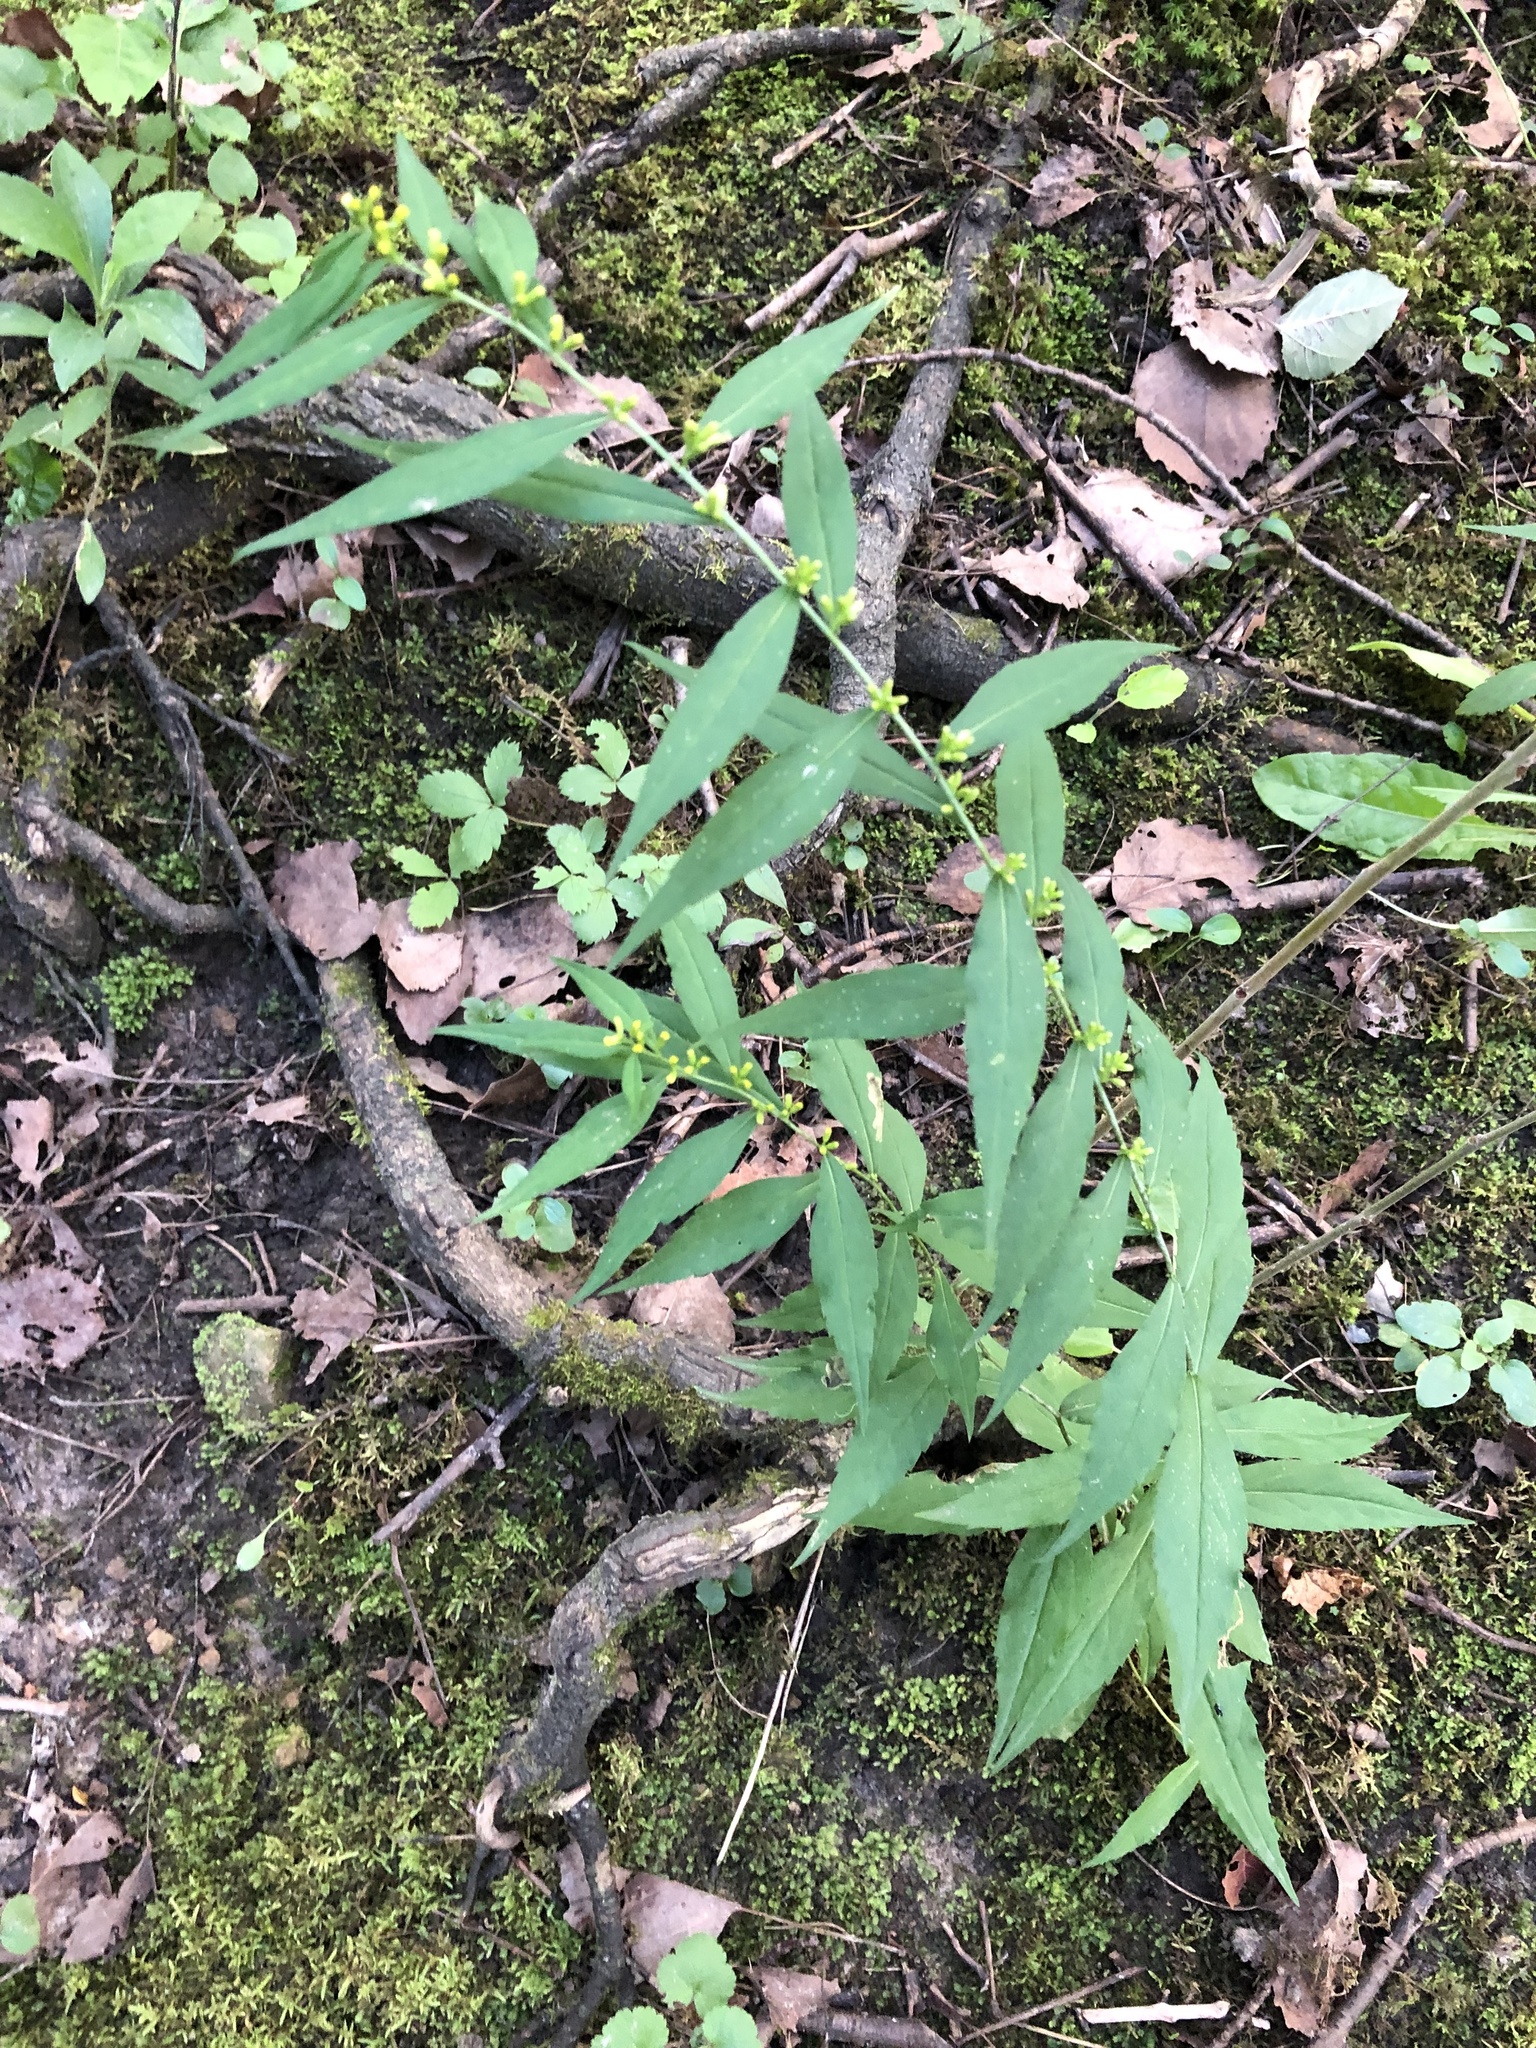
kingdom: Plantae
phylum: Tracheophyta
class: Magnoliopsida
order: Asterales
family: Asteraceae
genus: Solidago
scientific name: Solidago caesia
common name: Woodland goldenrod
